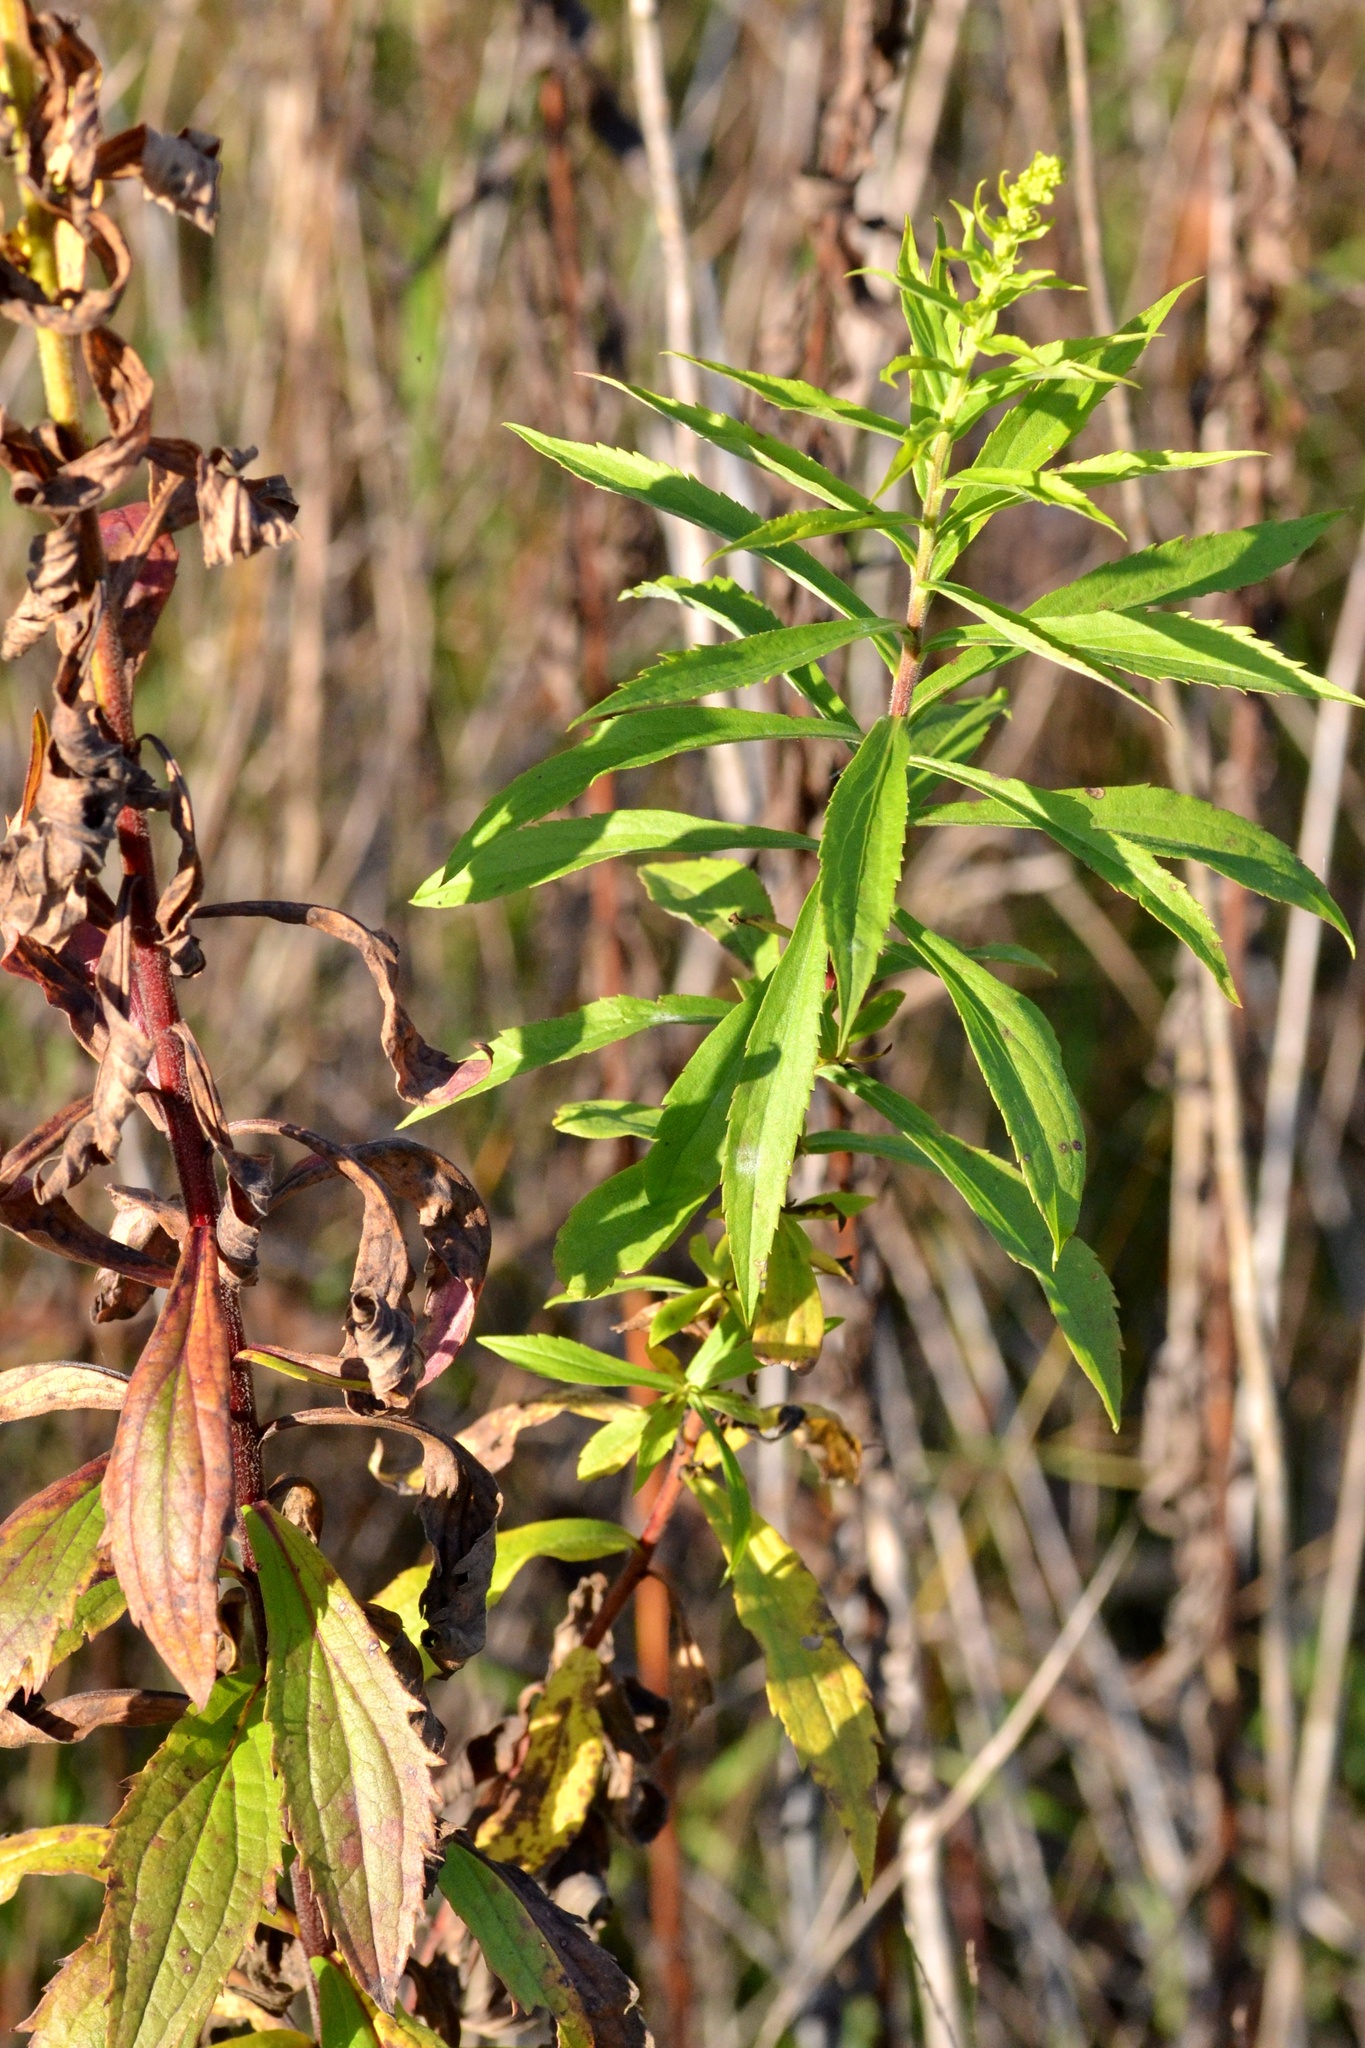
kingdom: Plantae
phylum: Tracheophyta
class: Magnoliopsida
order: Asterales
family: Asteraceae
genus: Solidago
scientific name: Solidago canadensis
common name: Canada goldenrod
